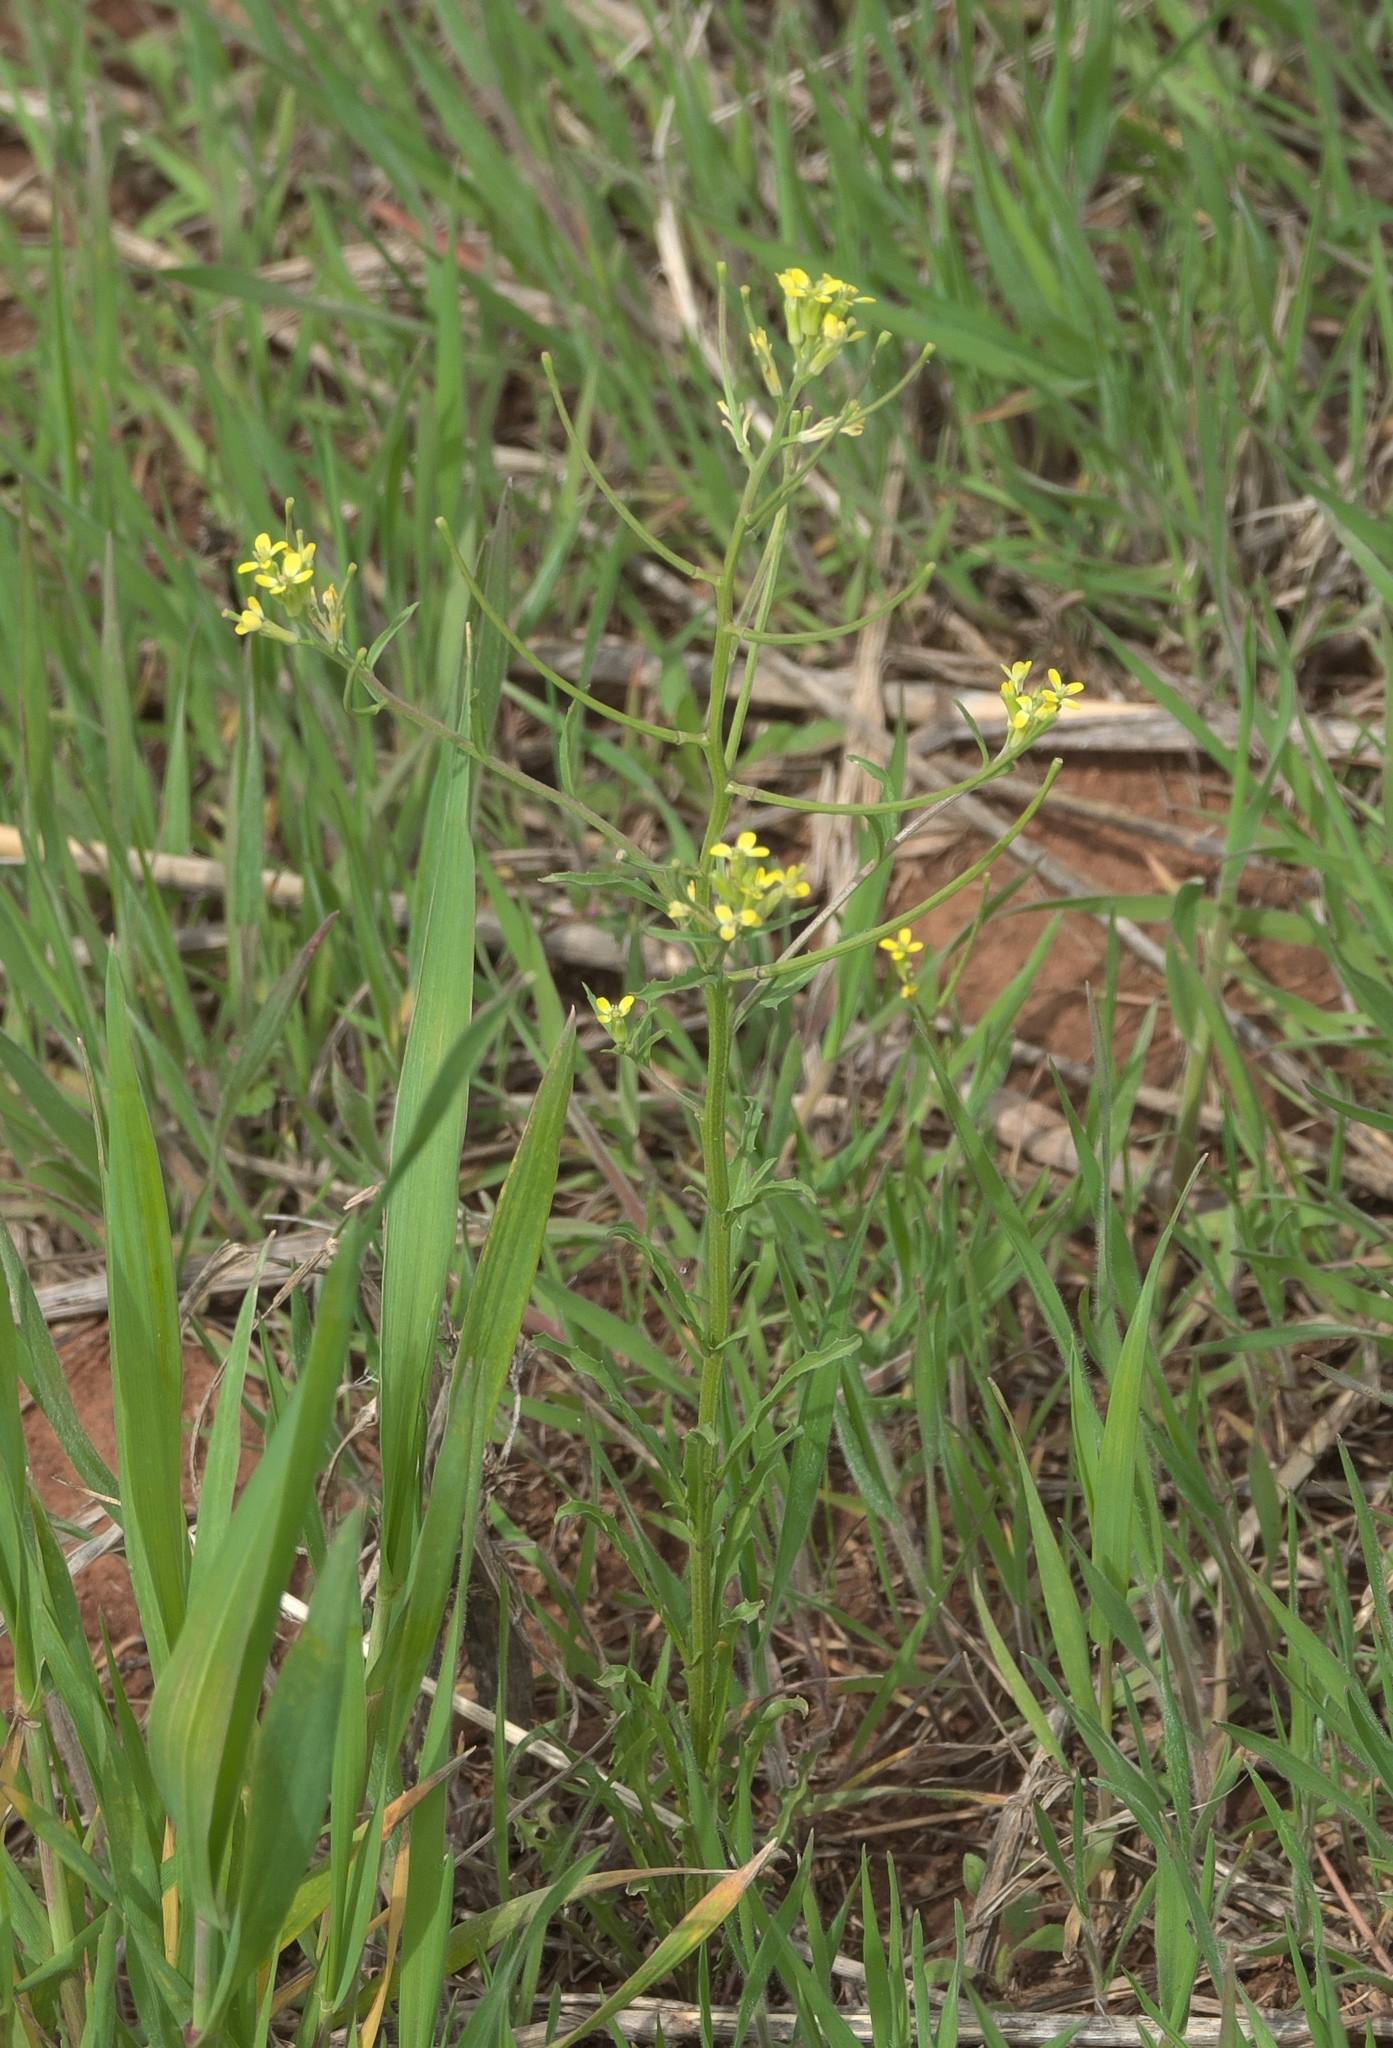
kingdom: Plantae
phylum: Tracheophyta
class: Magnoliopsida
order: Brassicales
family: Brassicaceae
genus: Erysimum
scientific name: Erysimum repandum
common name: Spreading wallflower
